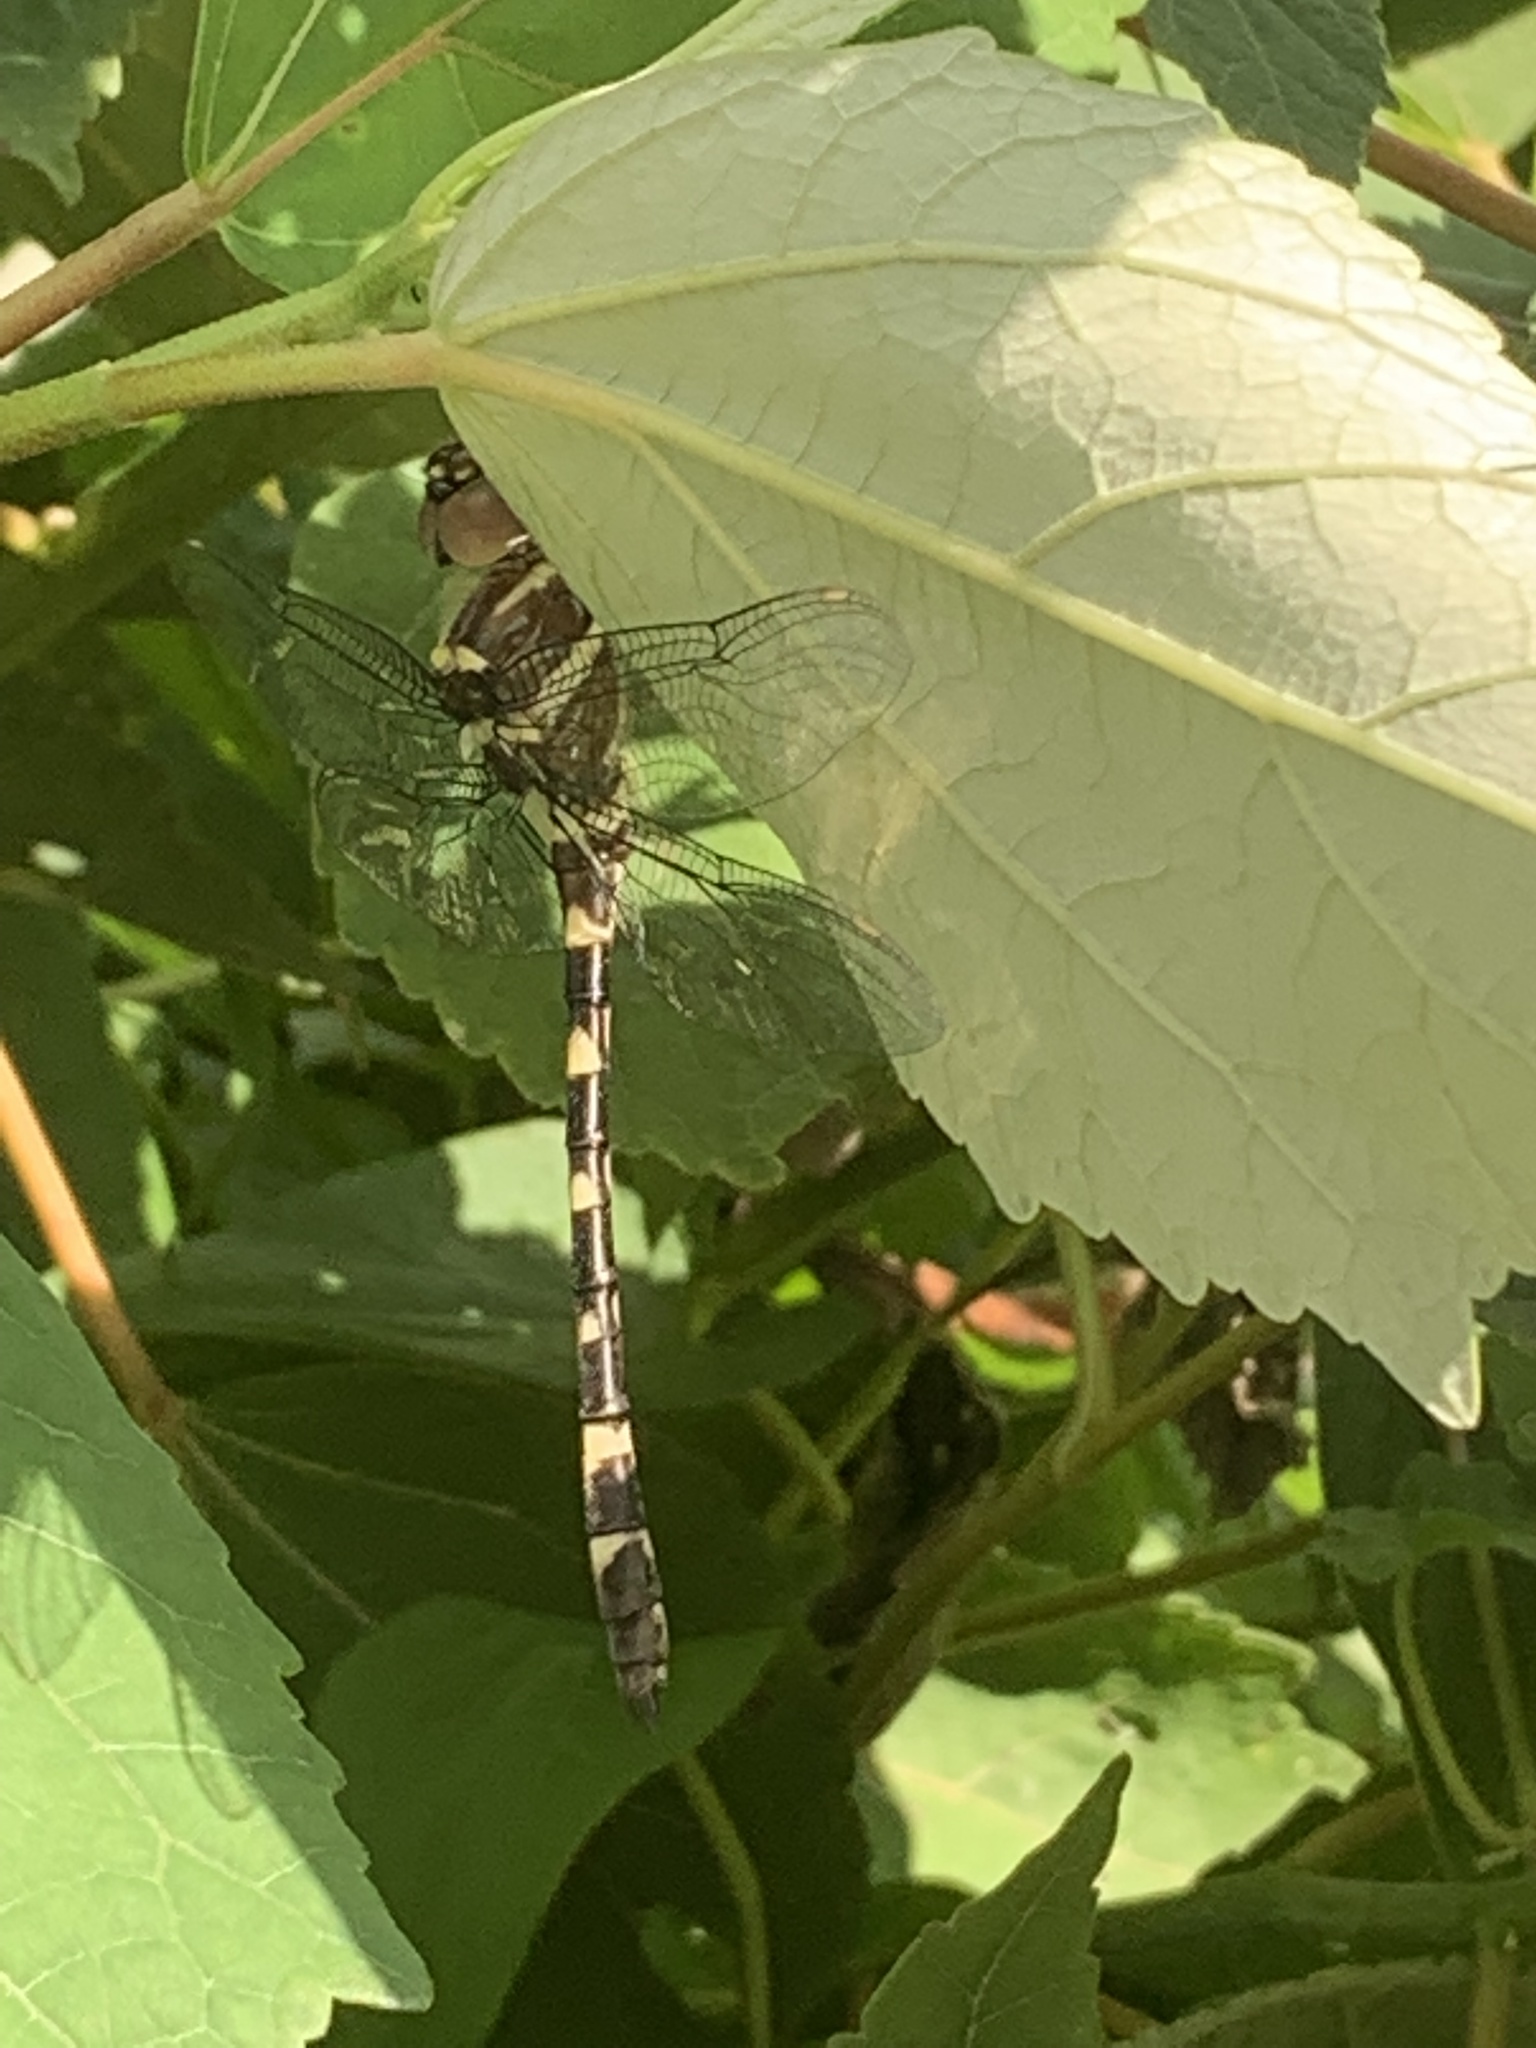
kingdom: Animalia
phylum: Arthropoda
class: Insecta
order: Odonata
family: Macromiidae
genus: Macromia
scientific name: Macromia illinoiensis
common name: Swift river cruiser
